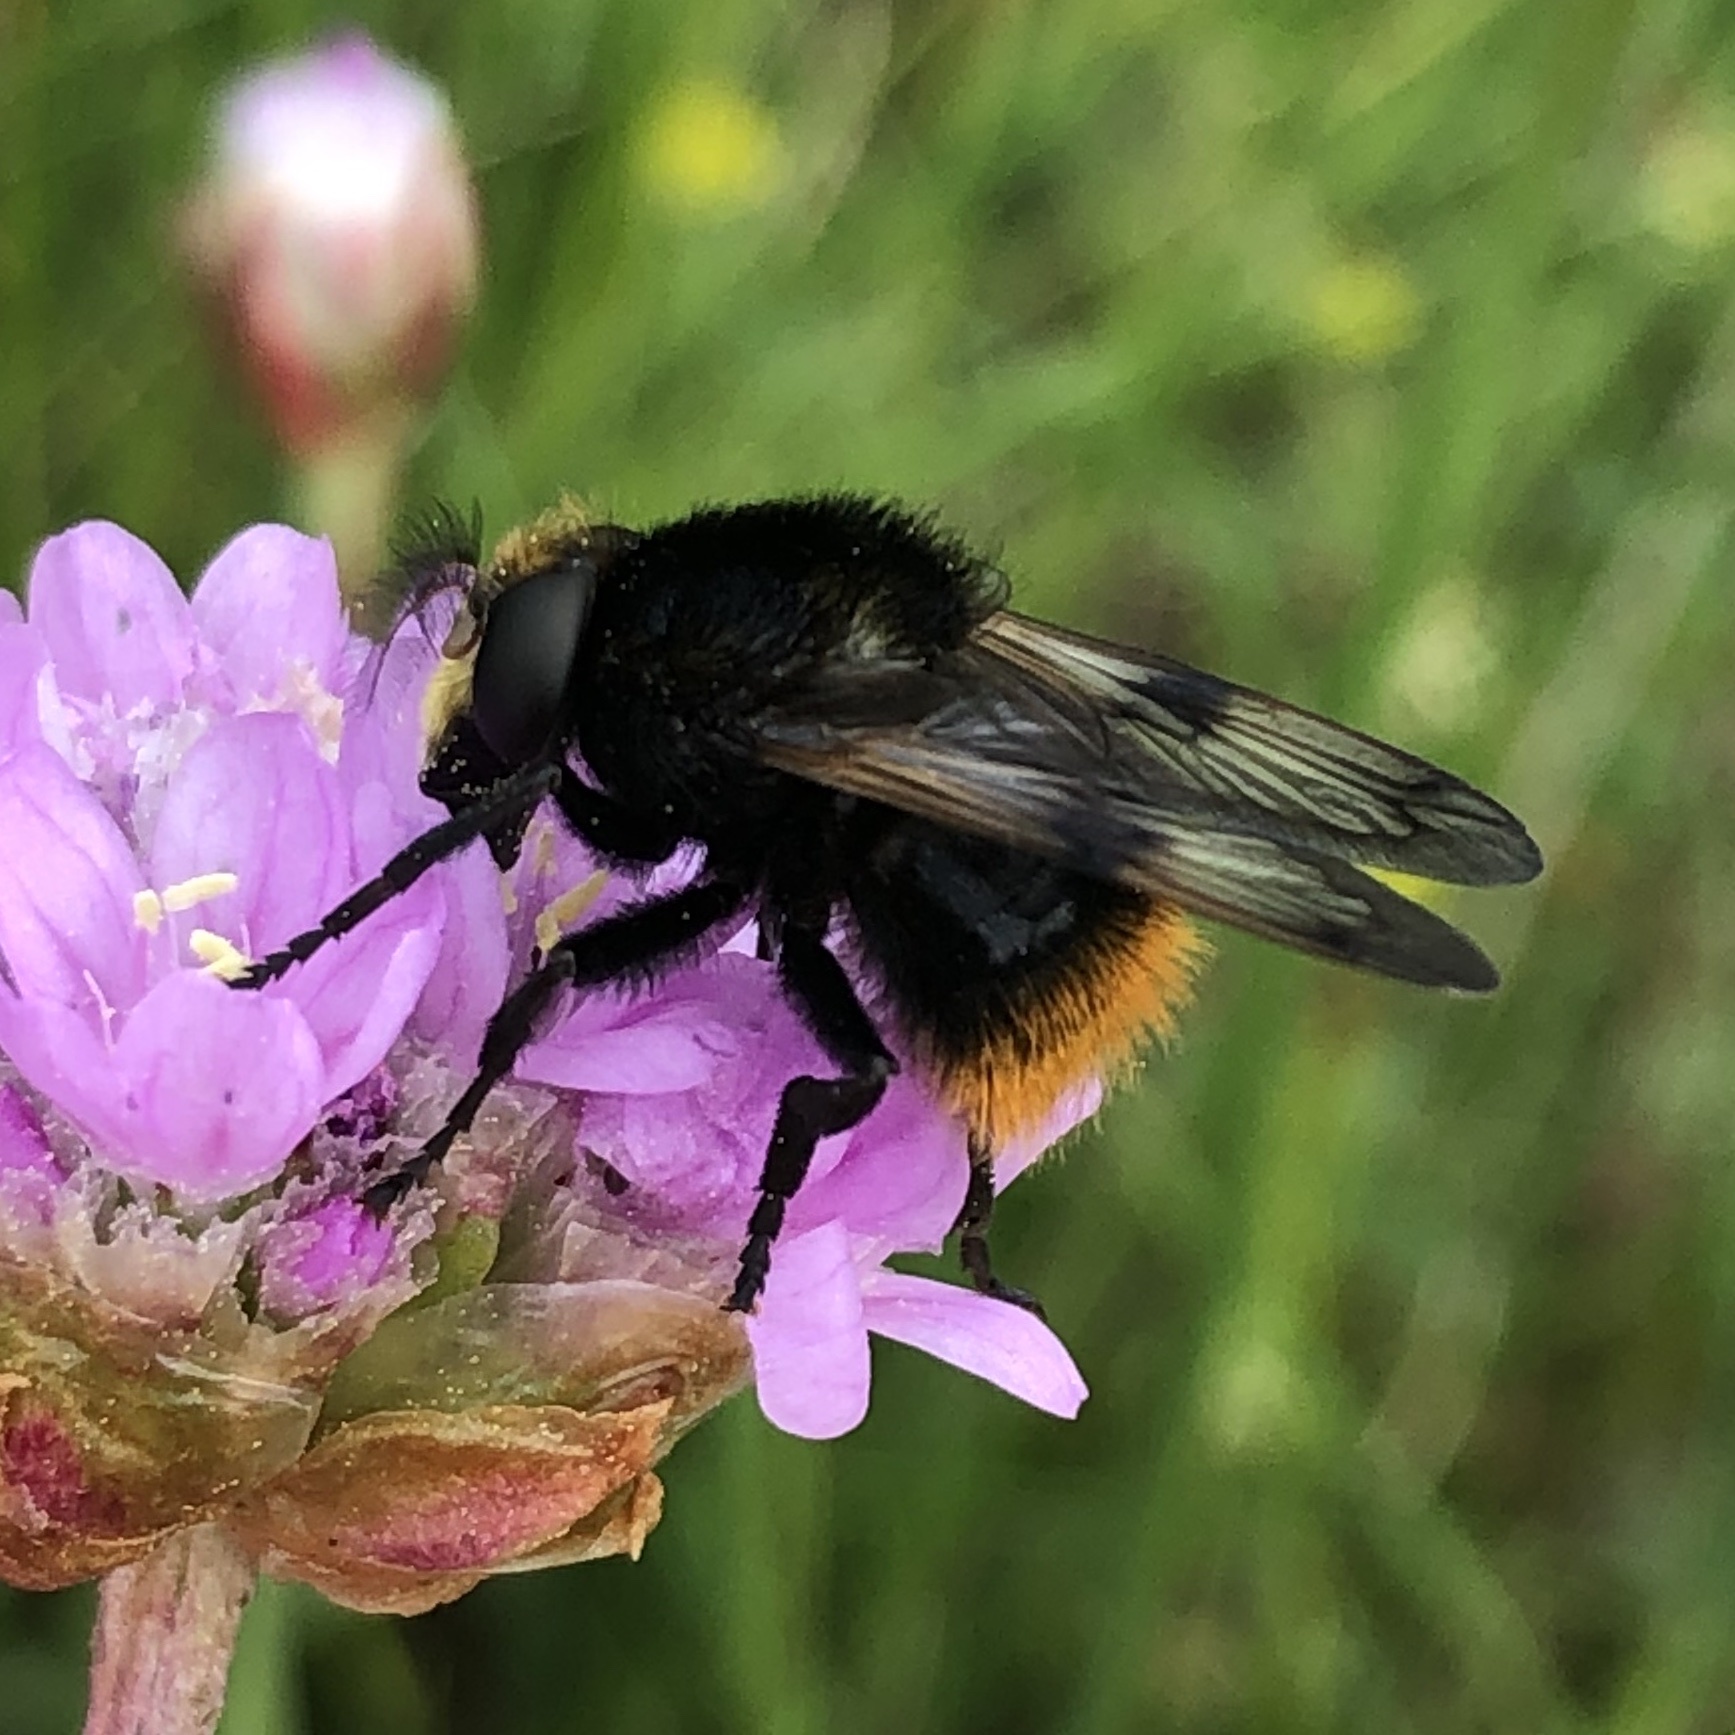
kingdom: Animalia
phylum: Arthropoda
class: Insecta
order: Diptera
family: Syrphidae
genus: Volucella
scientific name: Volucella bombylans
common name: Bumble bee hover fly
